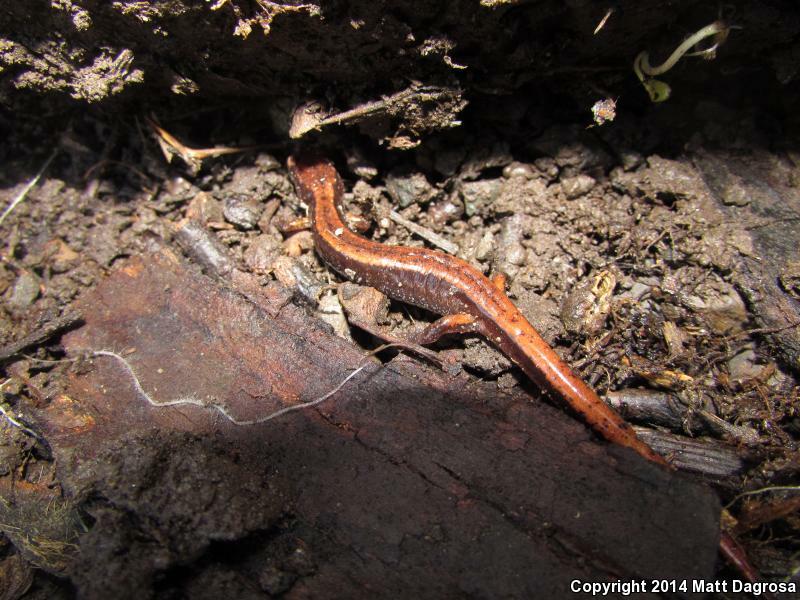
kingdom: Animalia
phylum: Chordata
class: Amphibia
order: Caudata
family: Plethodontidae
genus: Plethodon
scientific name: Plethodon vehiculum
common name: Western red-backed salamander
